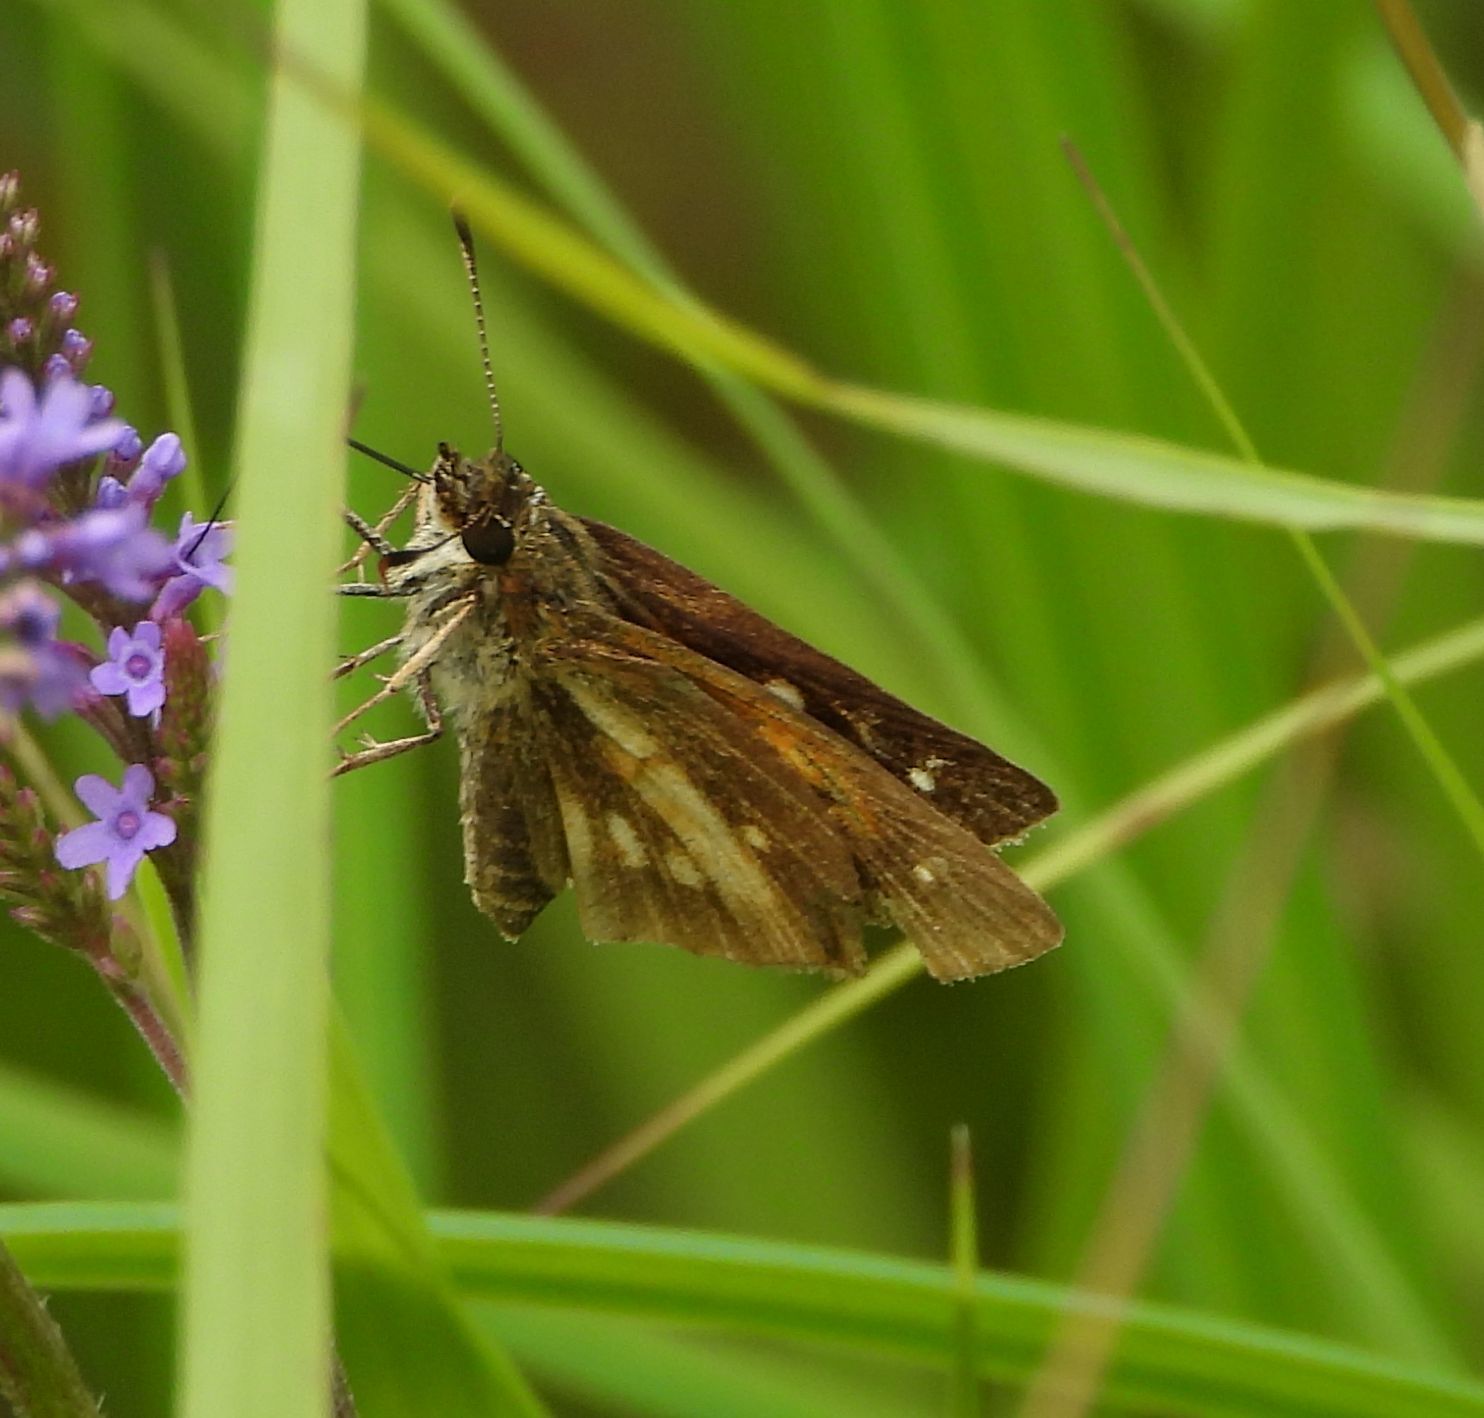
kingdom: Animalia
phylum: Arthropoda
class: Insecta
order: Lepidoptera
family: Hesperiidae
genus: Poanes
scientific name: Poanes viator
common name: Broad-winged skipper
